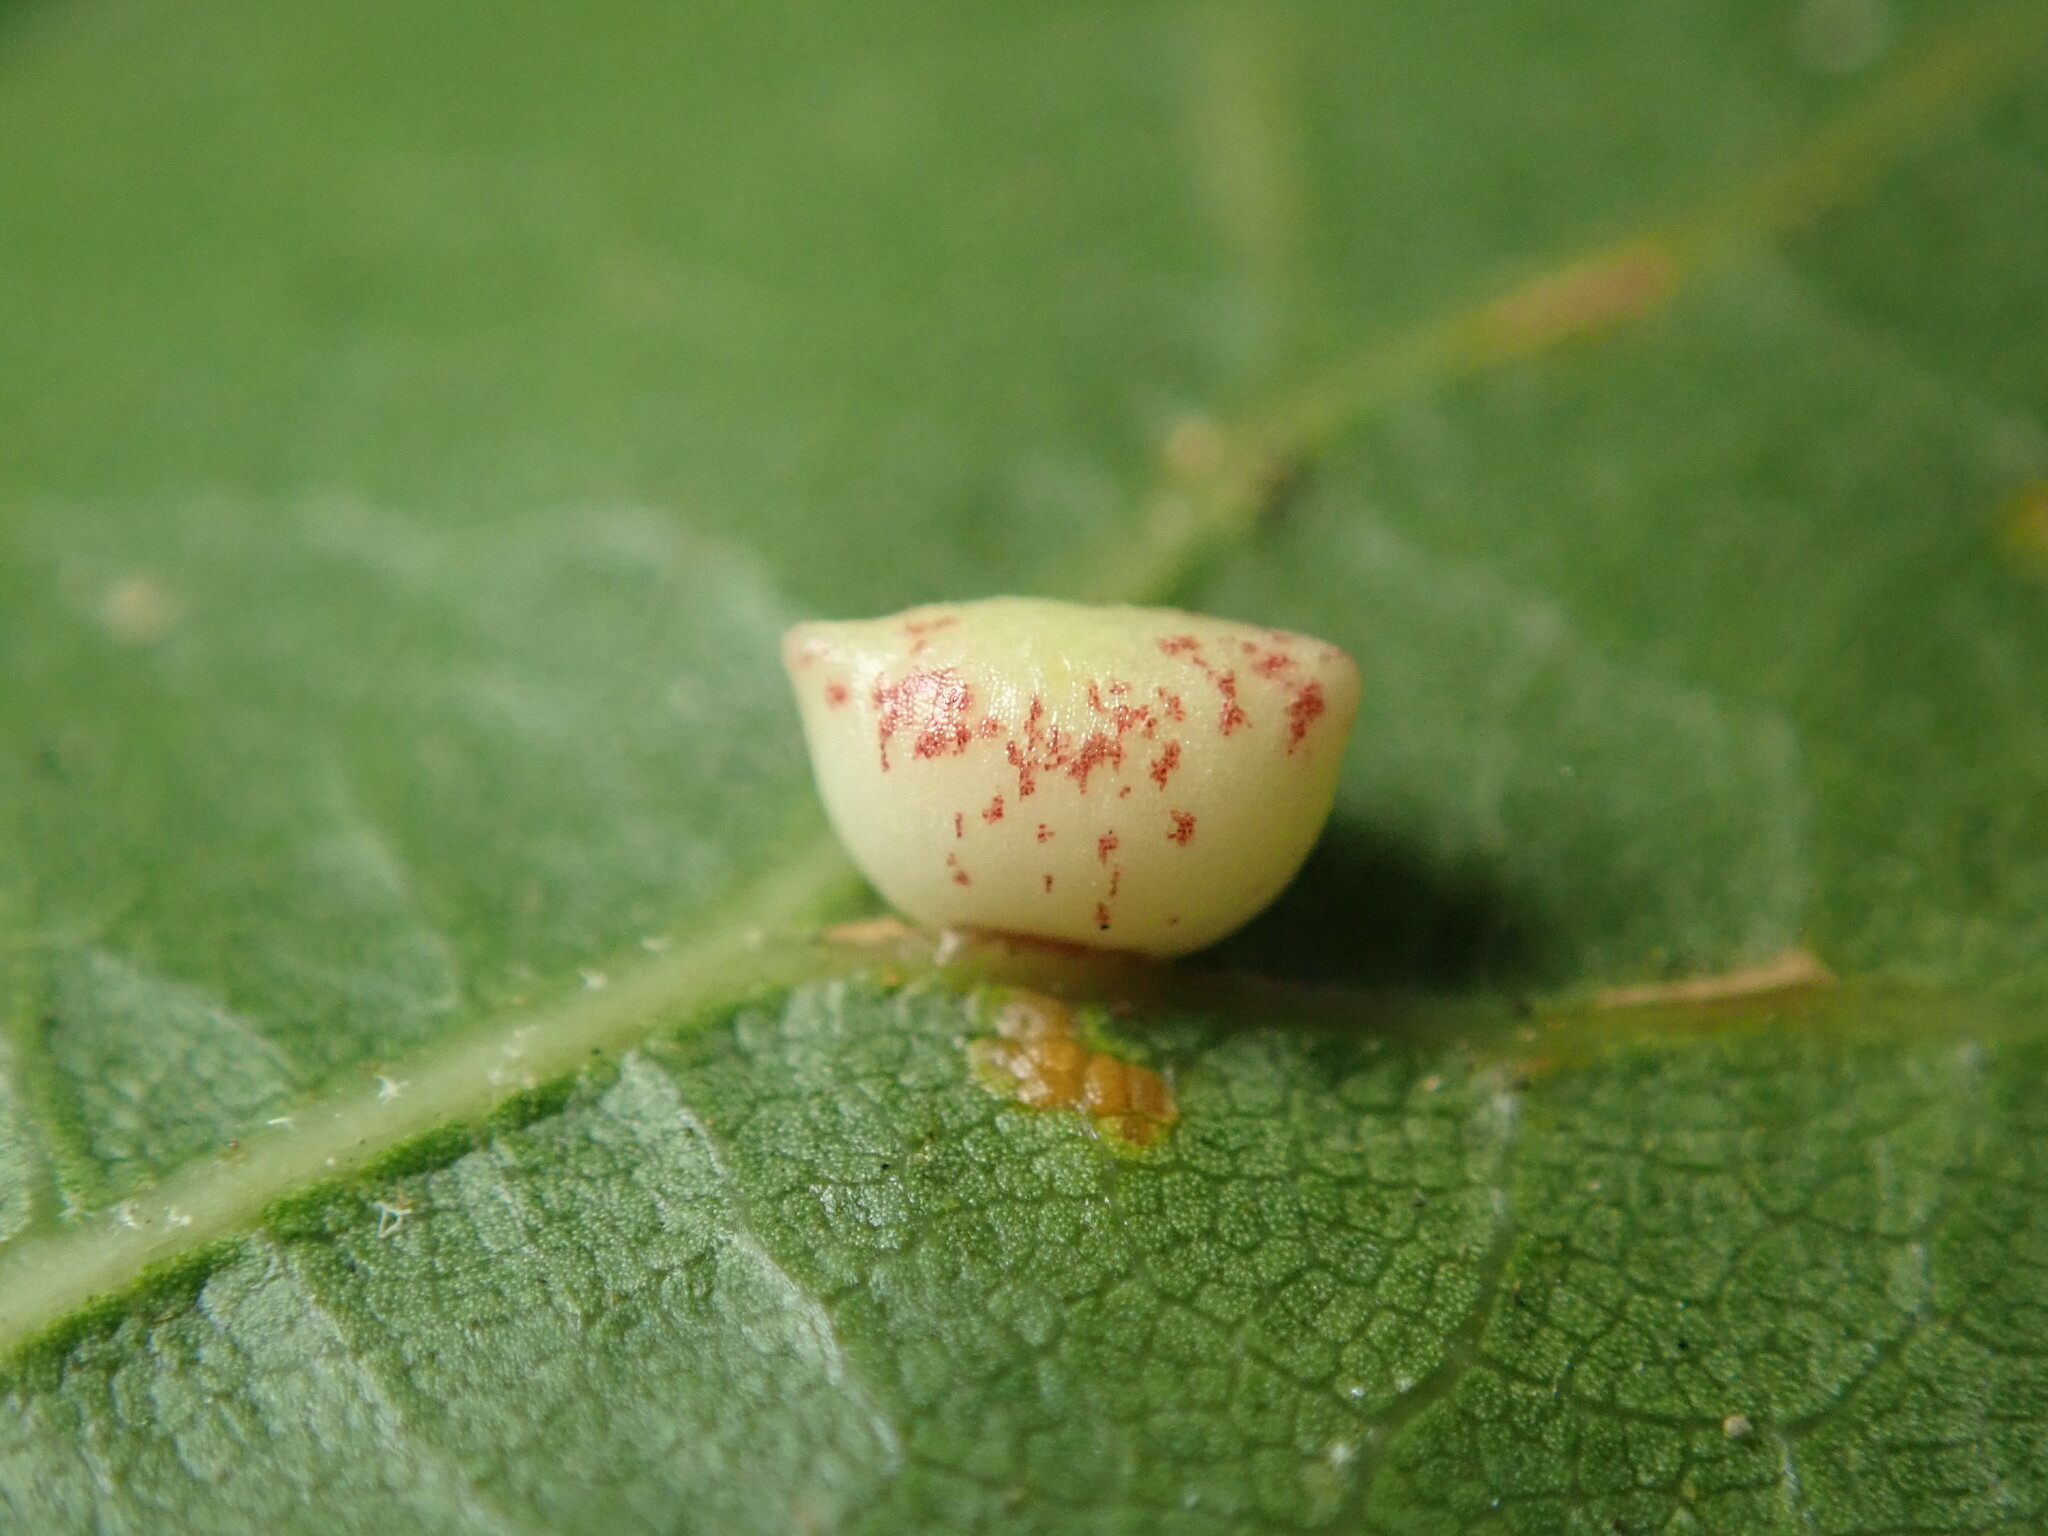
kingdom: Animalia
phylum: Arthropoda
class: Insecta
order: Hymenoptera
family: Cynipidae
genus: Dryocosmus
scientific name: Dryocosmus
